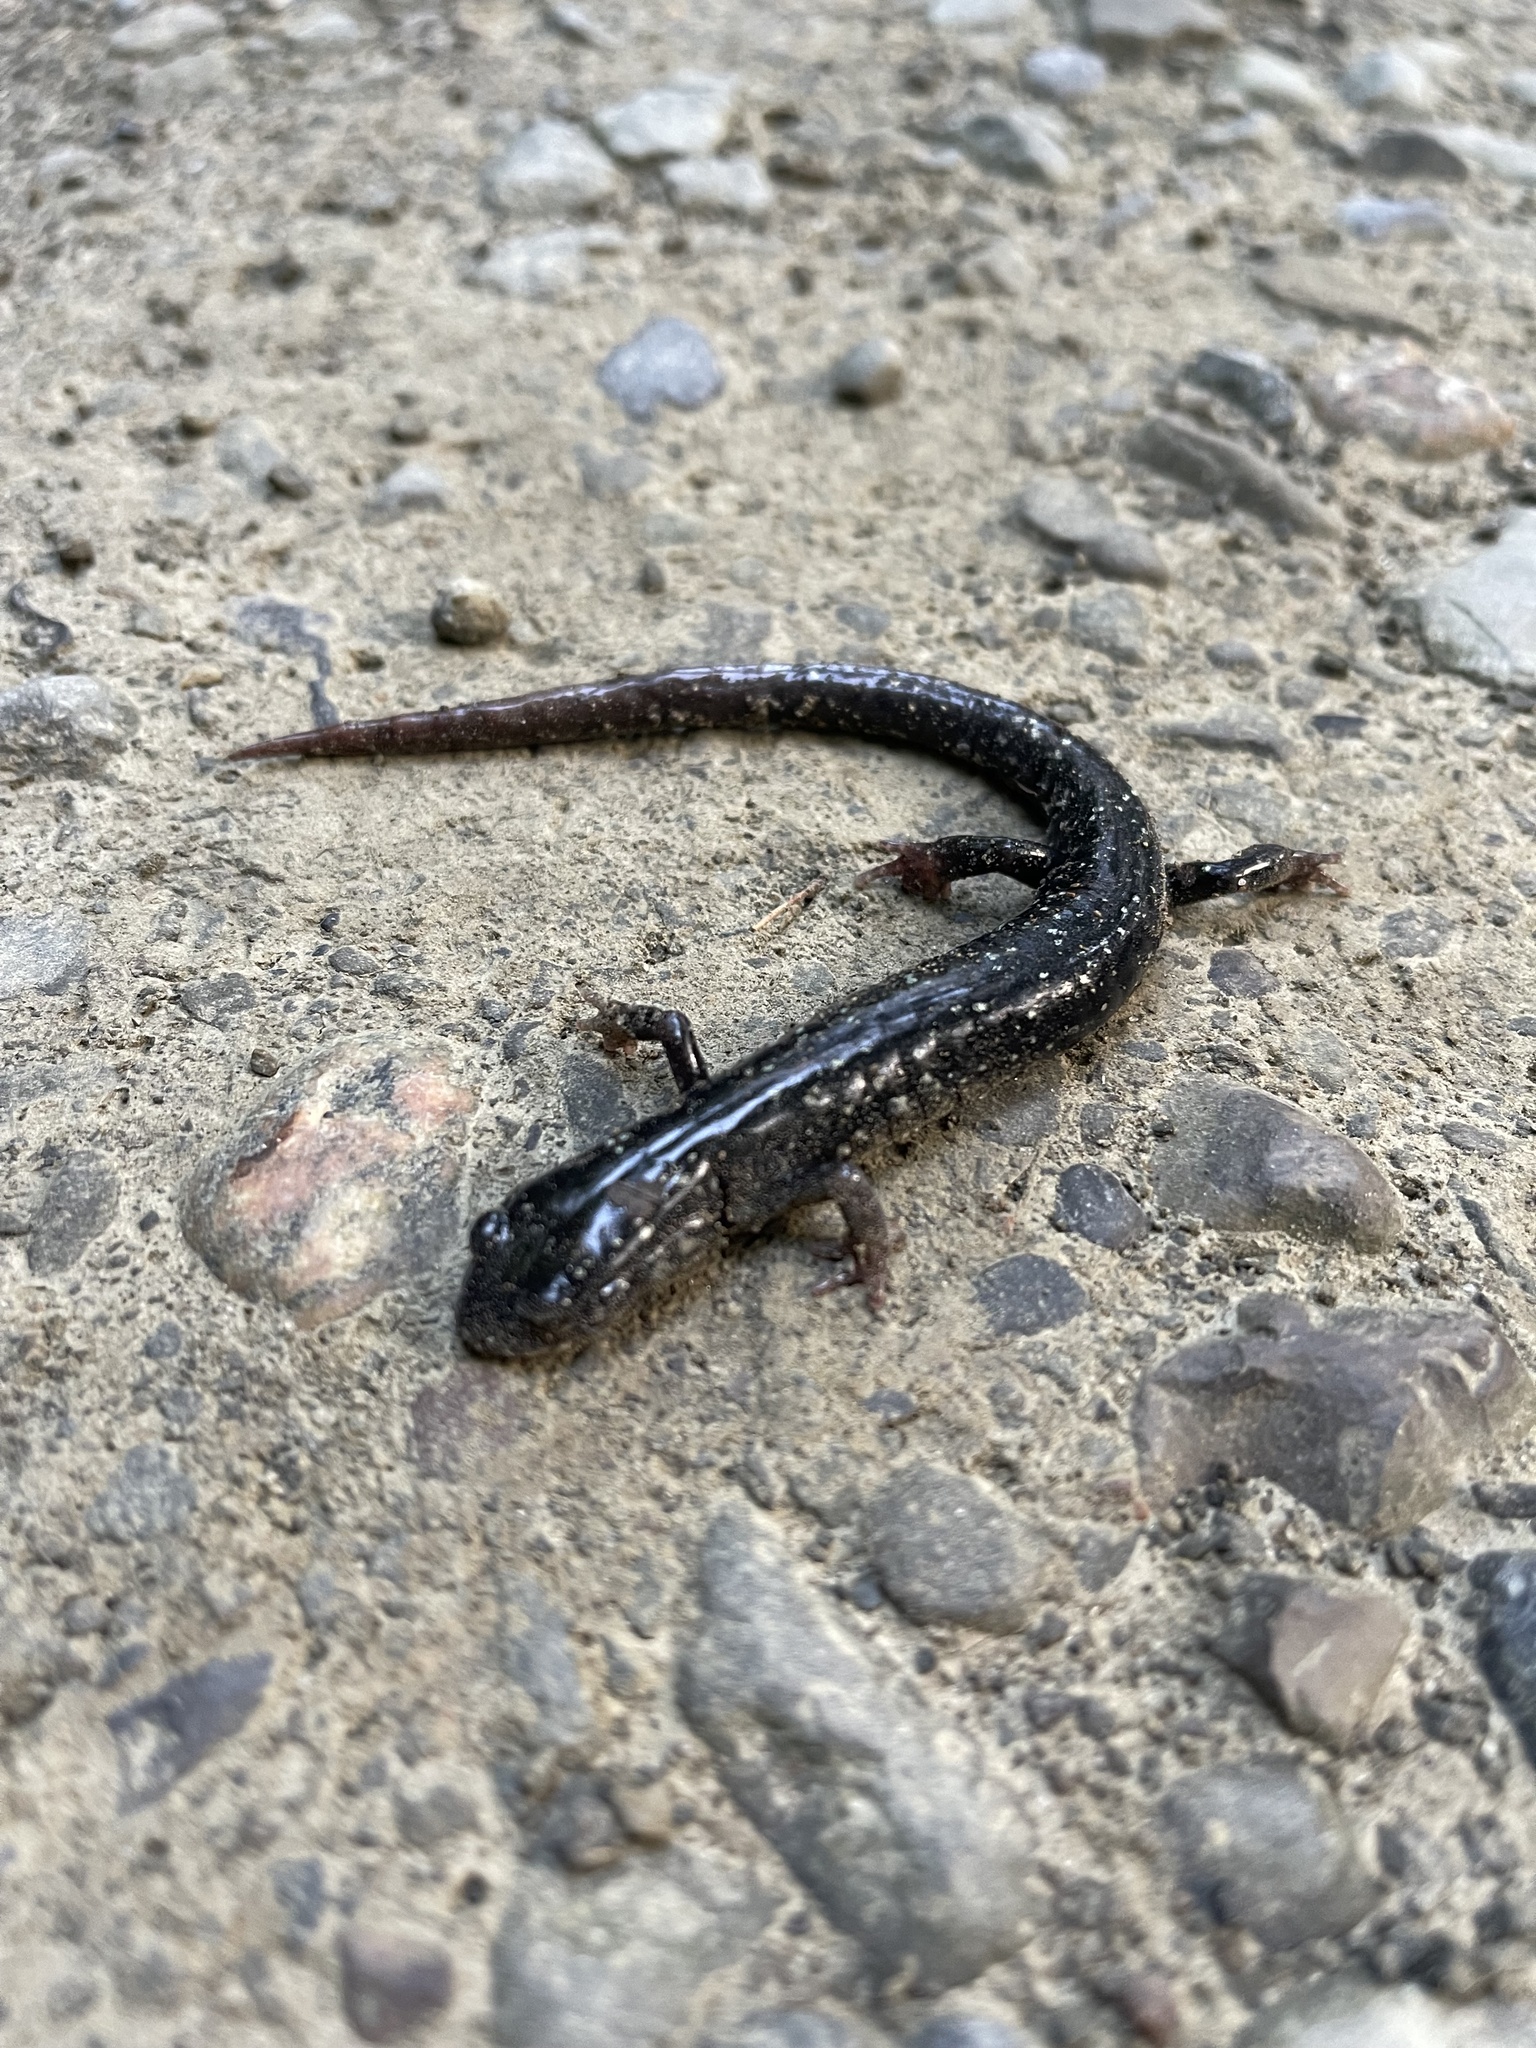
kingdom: Animalia
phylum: Chordata
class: Amphibia
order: Caudata
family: Plethodontidae
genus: Plethodon
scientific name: Plethodon glutinosus
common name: Northern slimy salamander
